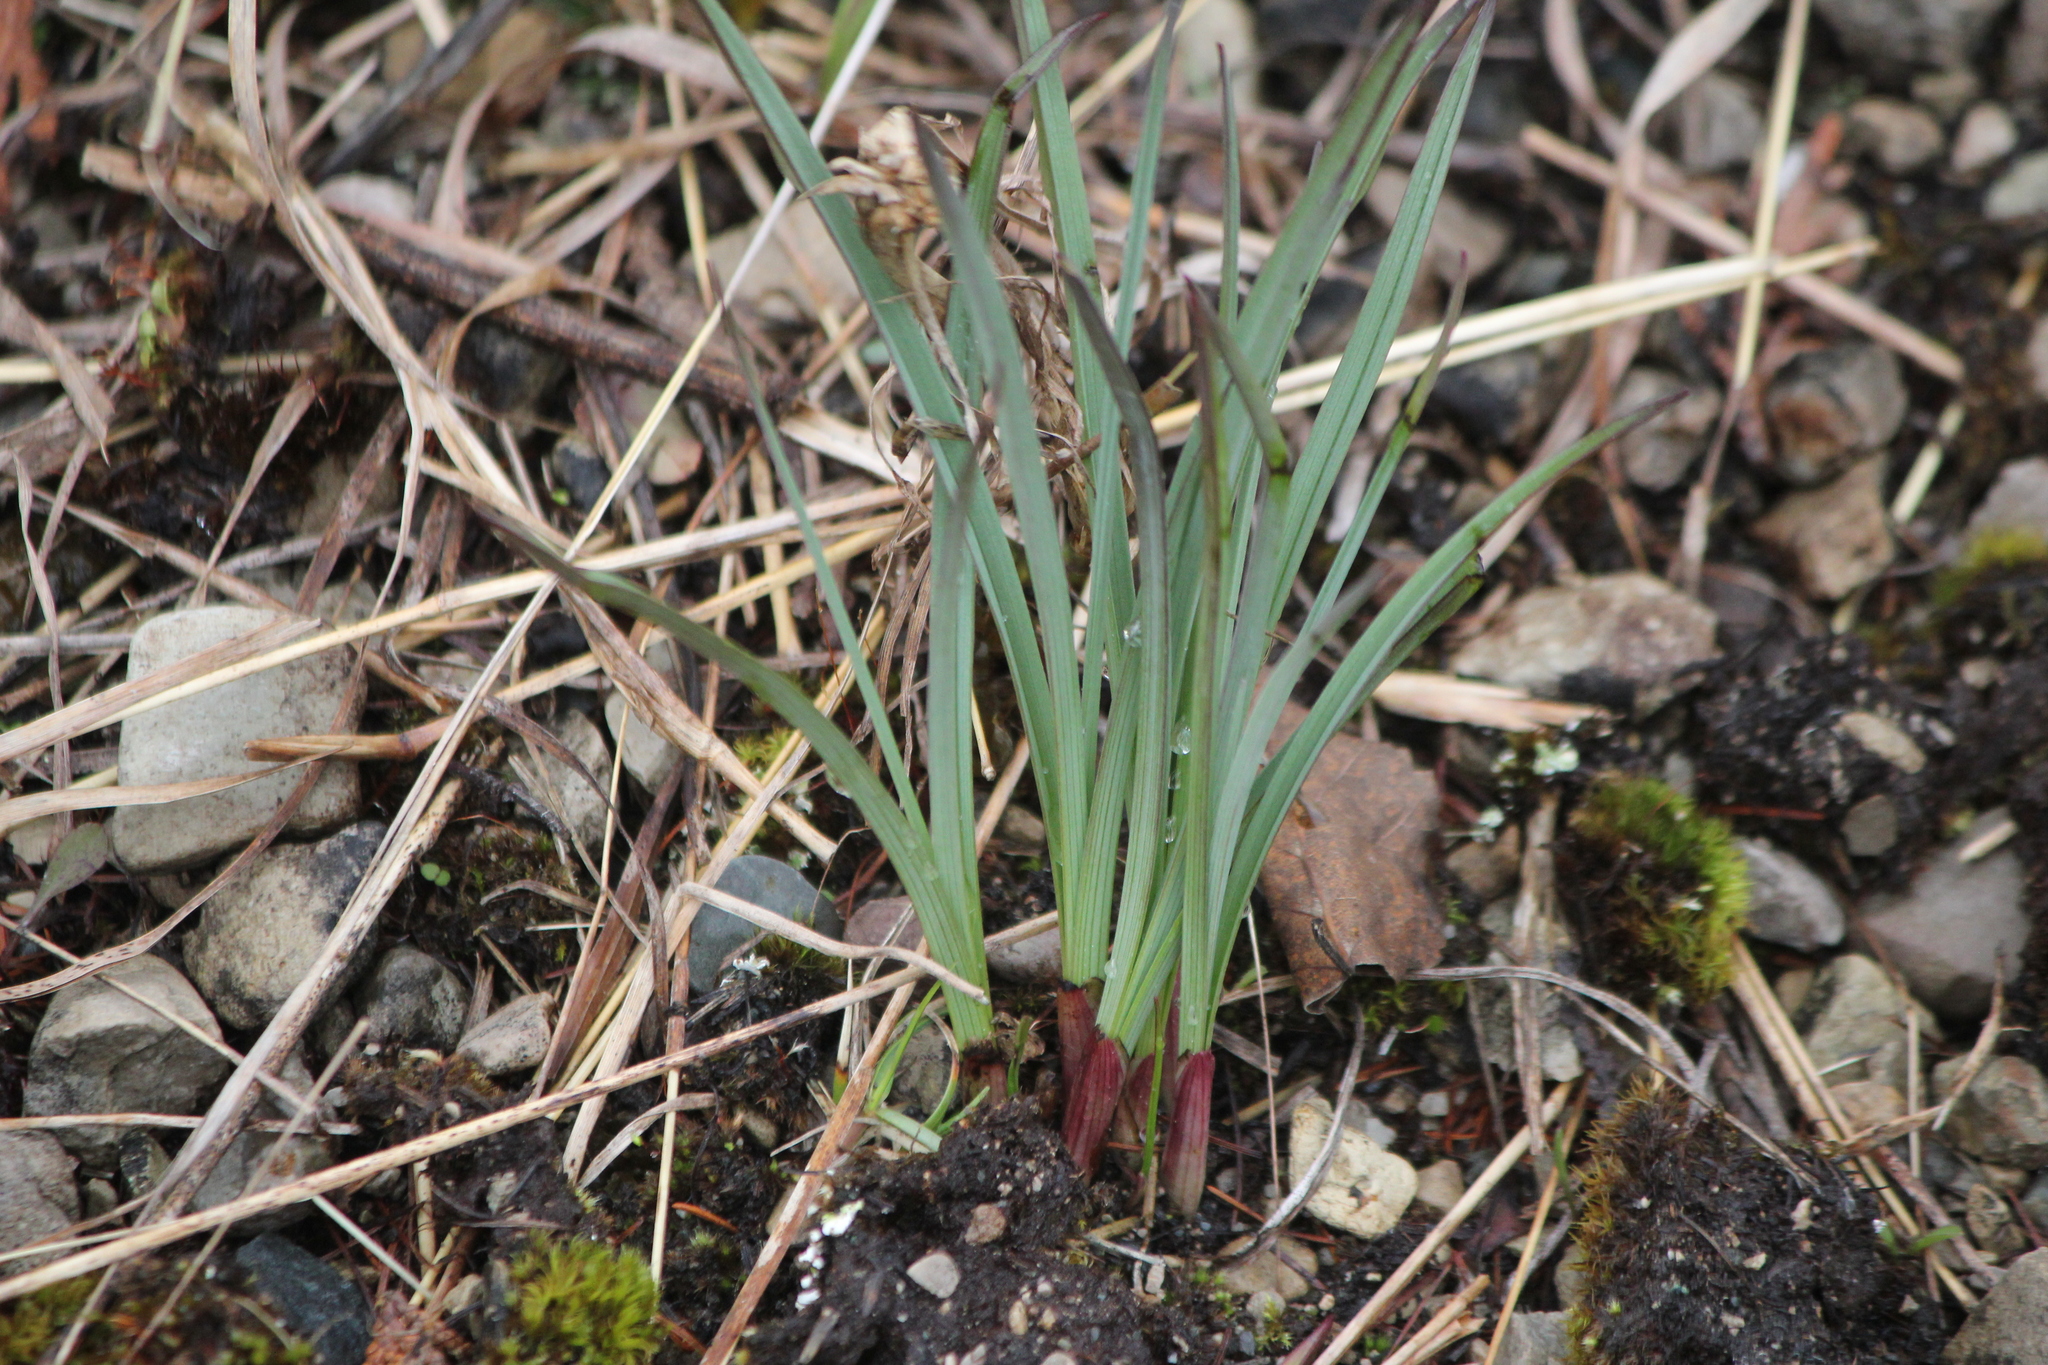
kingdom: Plantae
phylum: Tracheophyta
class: Liliopsida
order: Liliales
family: Melanthiaceae
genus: Anticlea
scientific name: Anticlea elegans
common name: Mountain death camas
